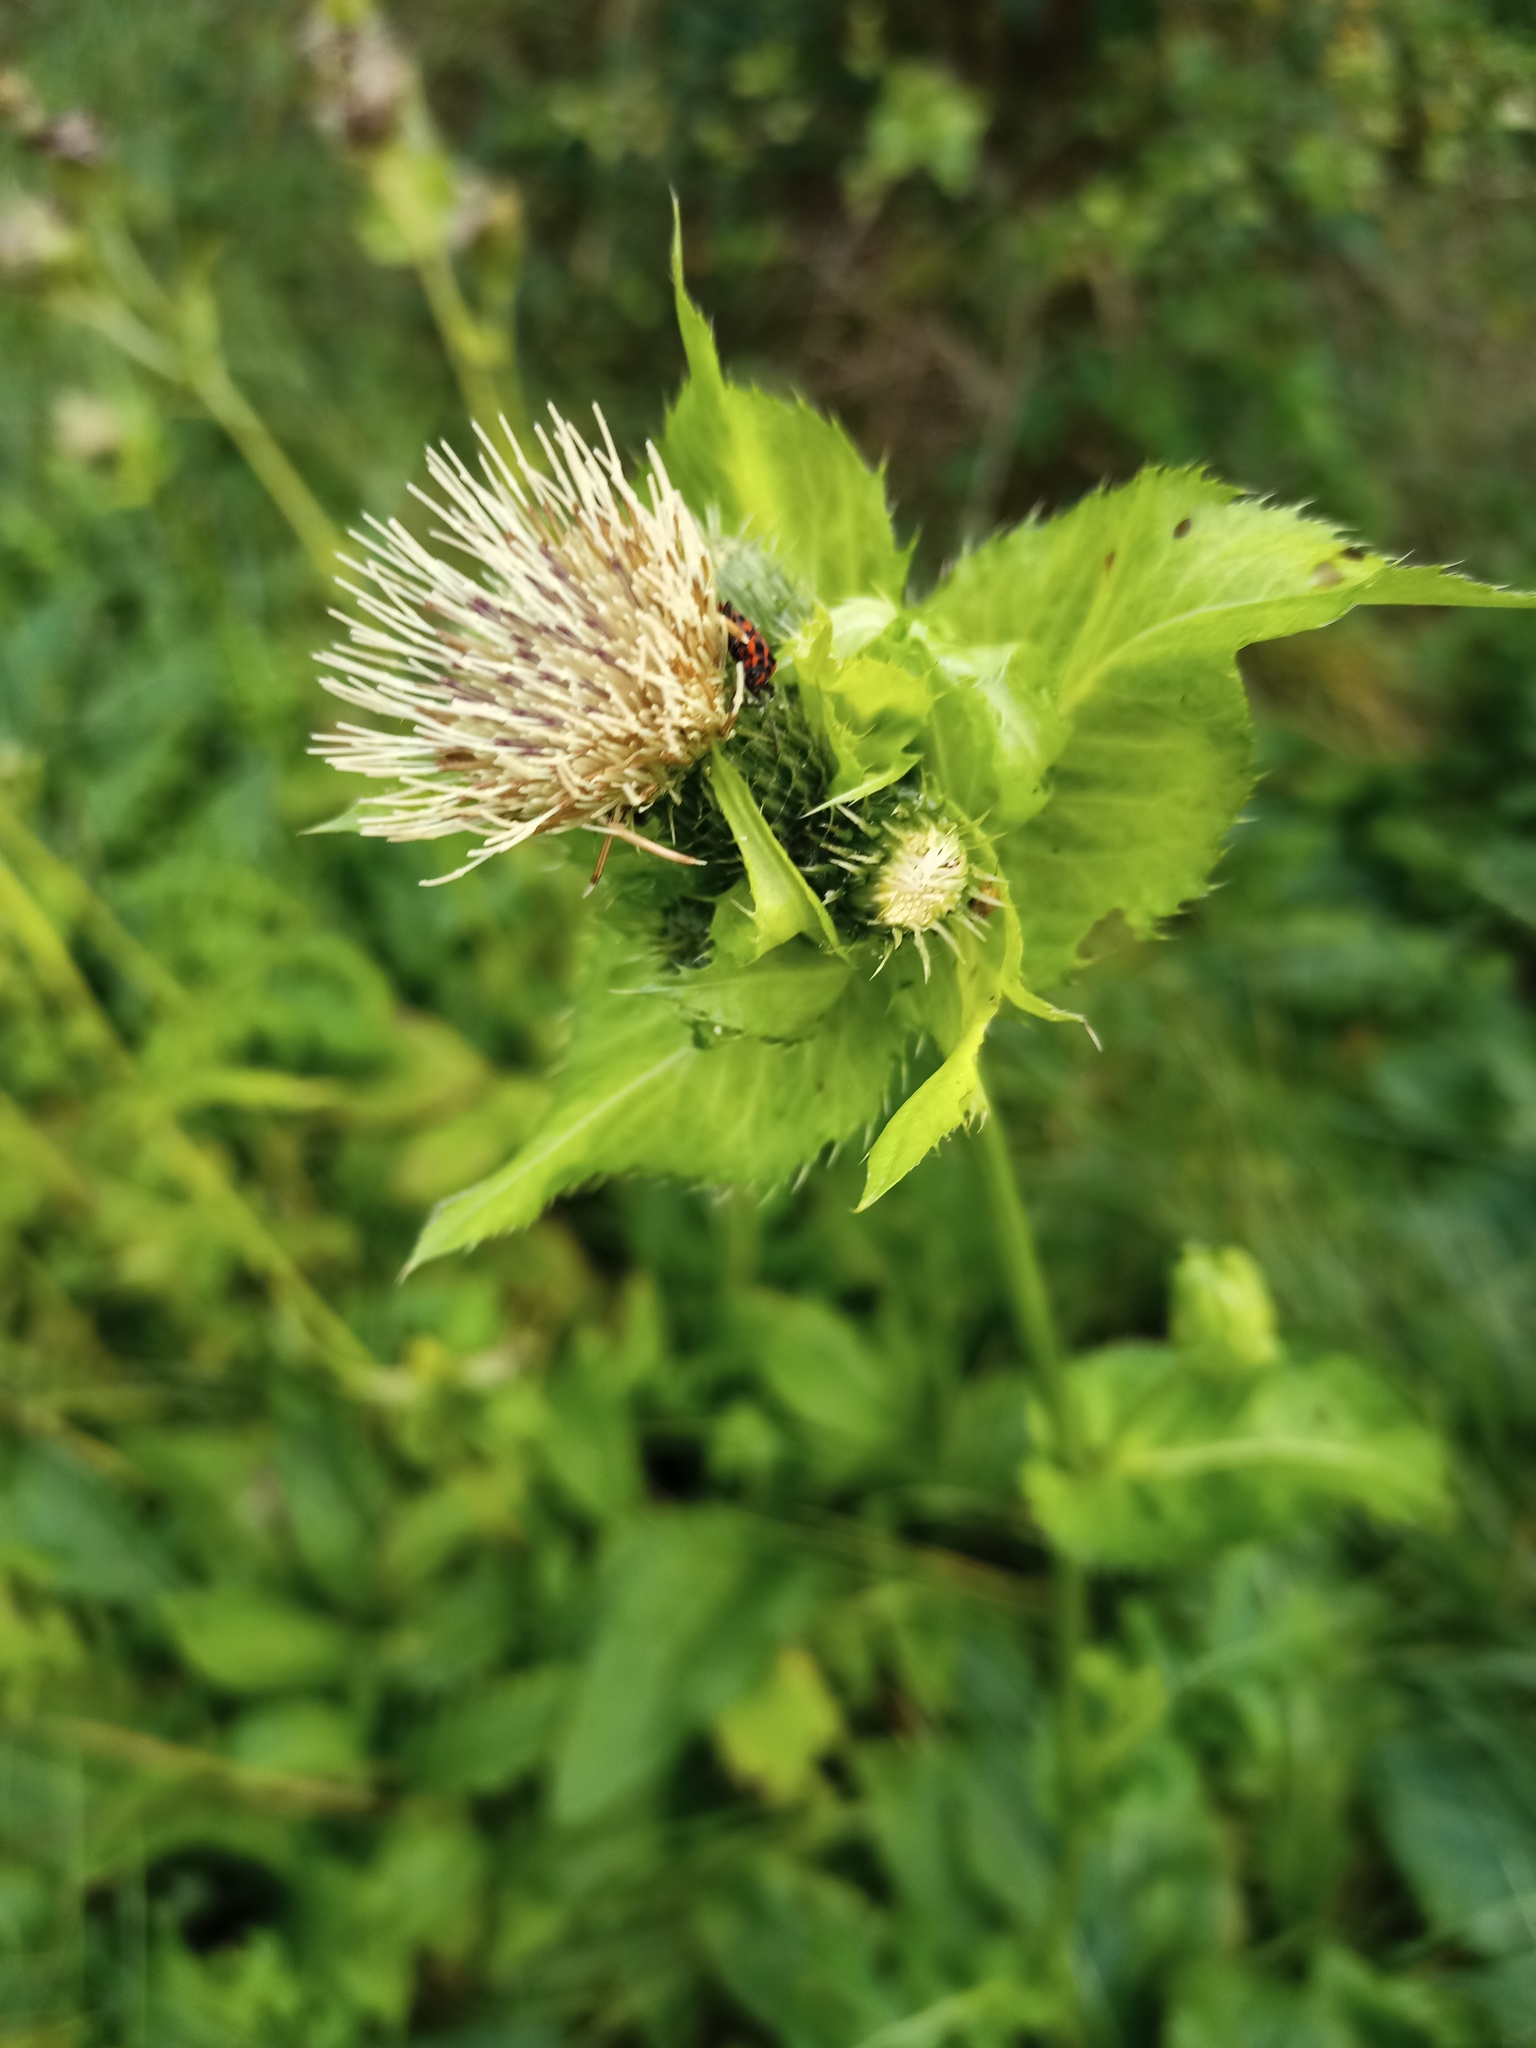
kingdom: Plantae
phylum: Tracheophyta
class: Magnoliopsida
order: Asterales
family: Asteraceae
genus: Cirsium
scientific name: Cirsium oleraceum
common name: Cabbage thistle
